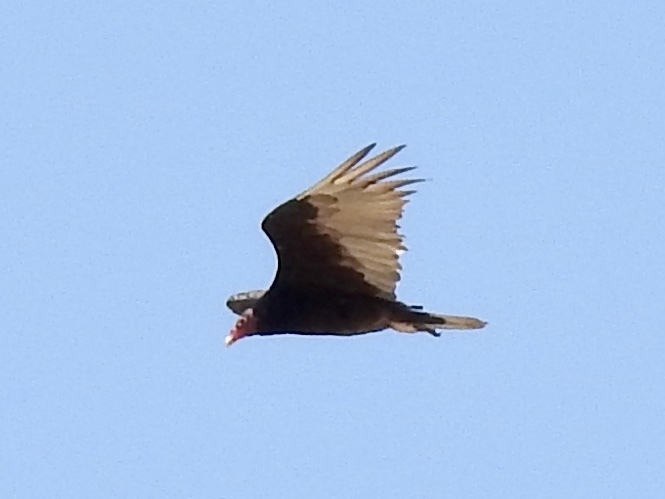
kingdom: Animalia
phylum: Chordata
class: Aves
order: Accipitriformes
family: Cathartidae
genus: Cathartes
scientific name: Cathartes aura
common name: Turkey vulture
